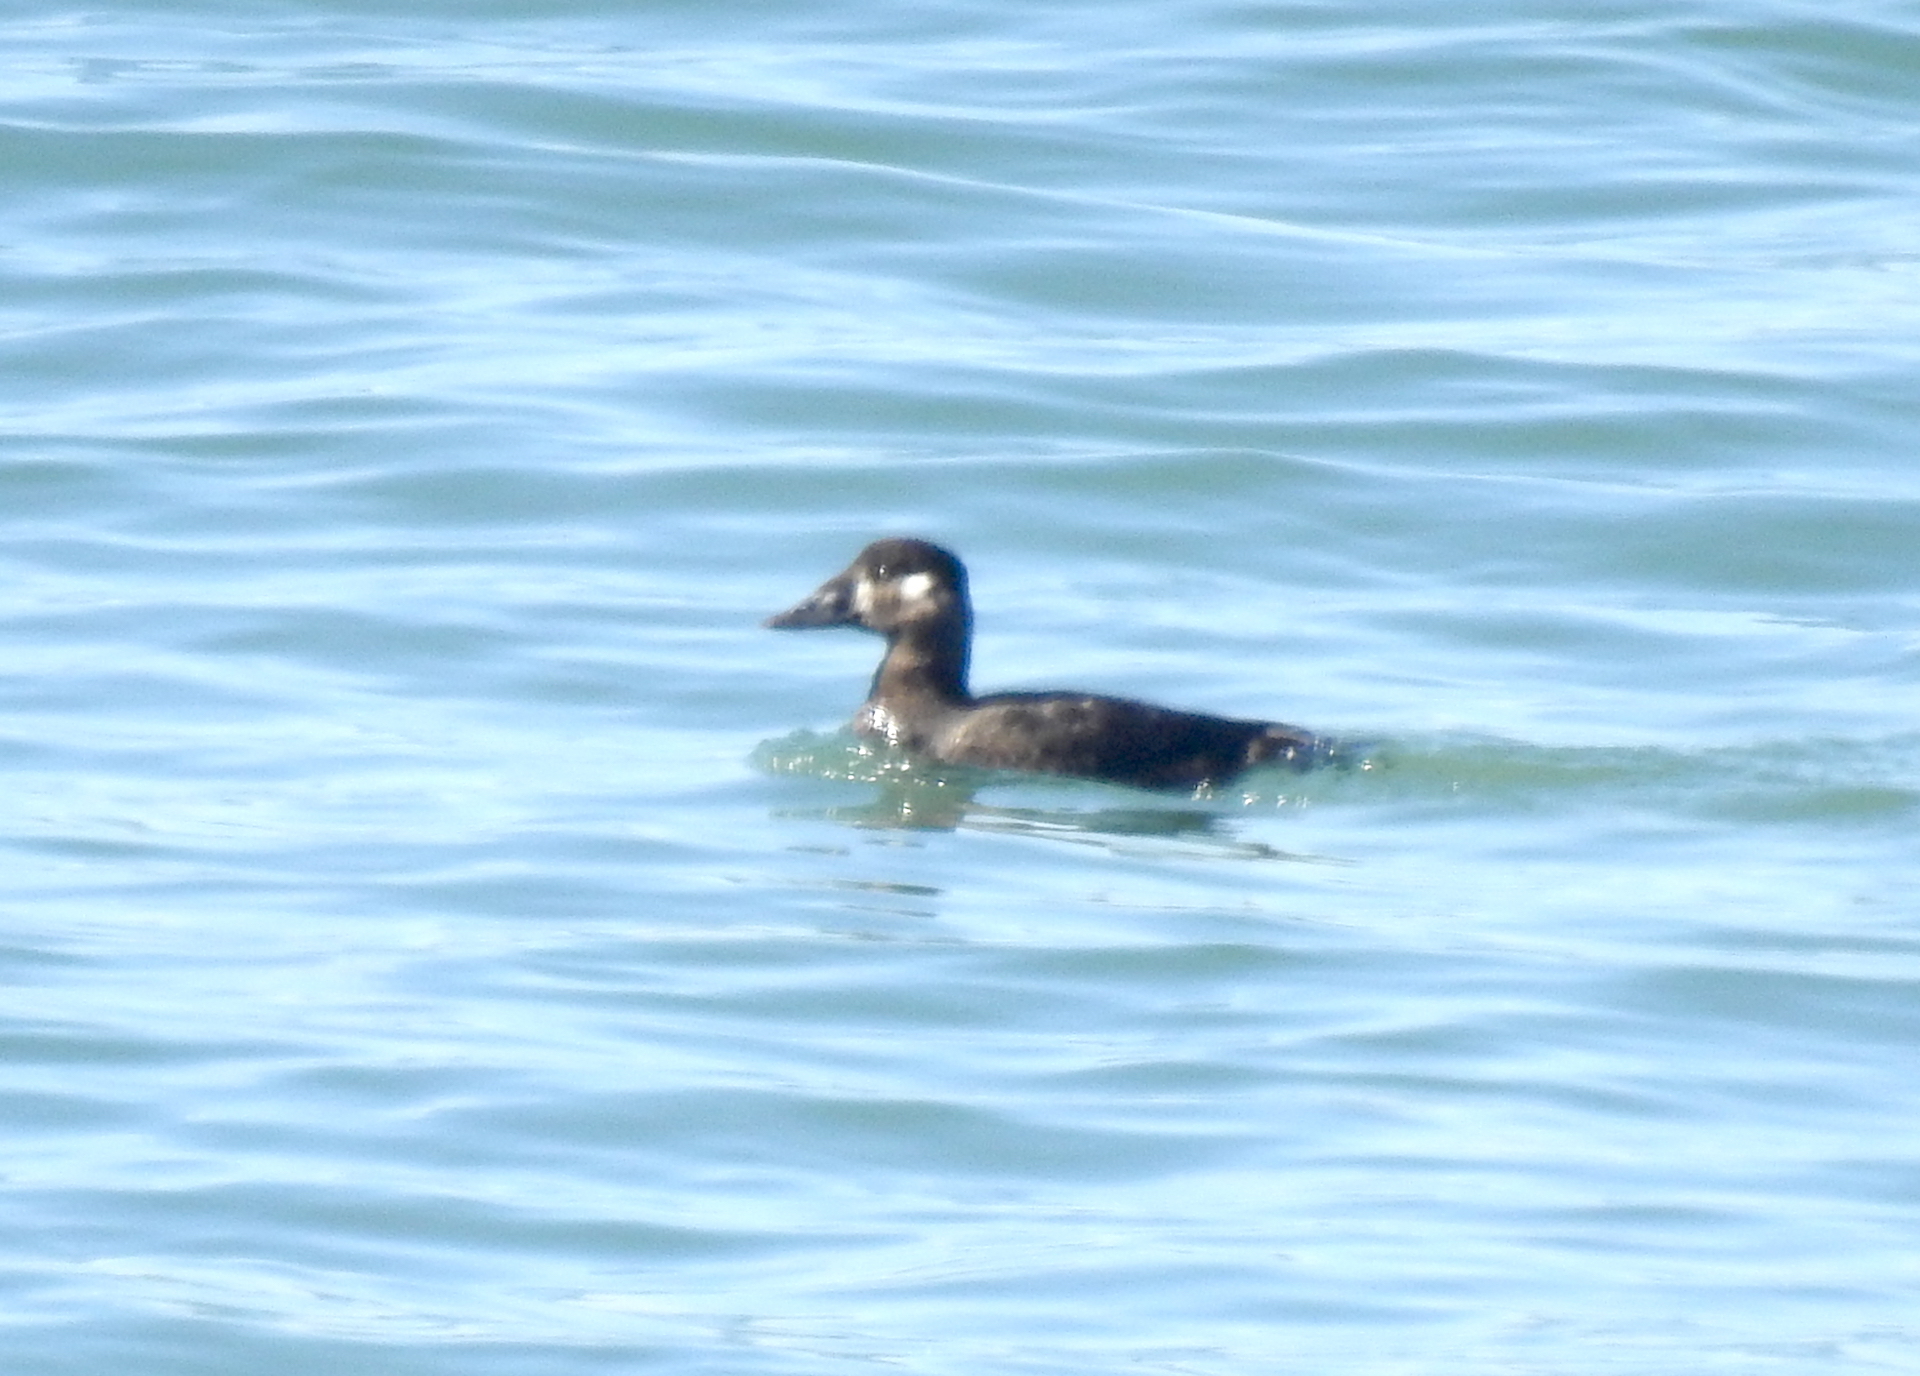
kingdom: Animalia
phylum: Chordata
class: Aves
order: Anseriformes
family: Anatidae
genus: Melanitta
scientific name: Melanitta perspicillata
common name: Surf scoter
